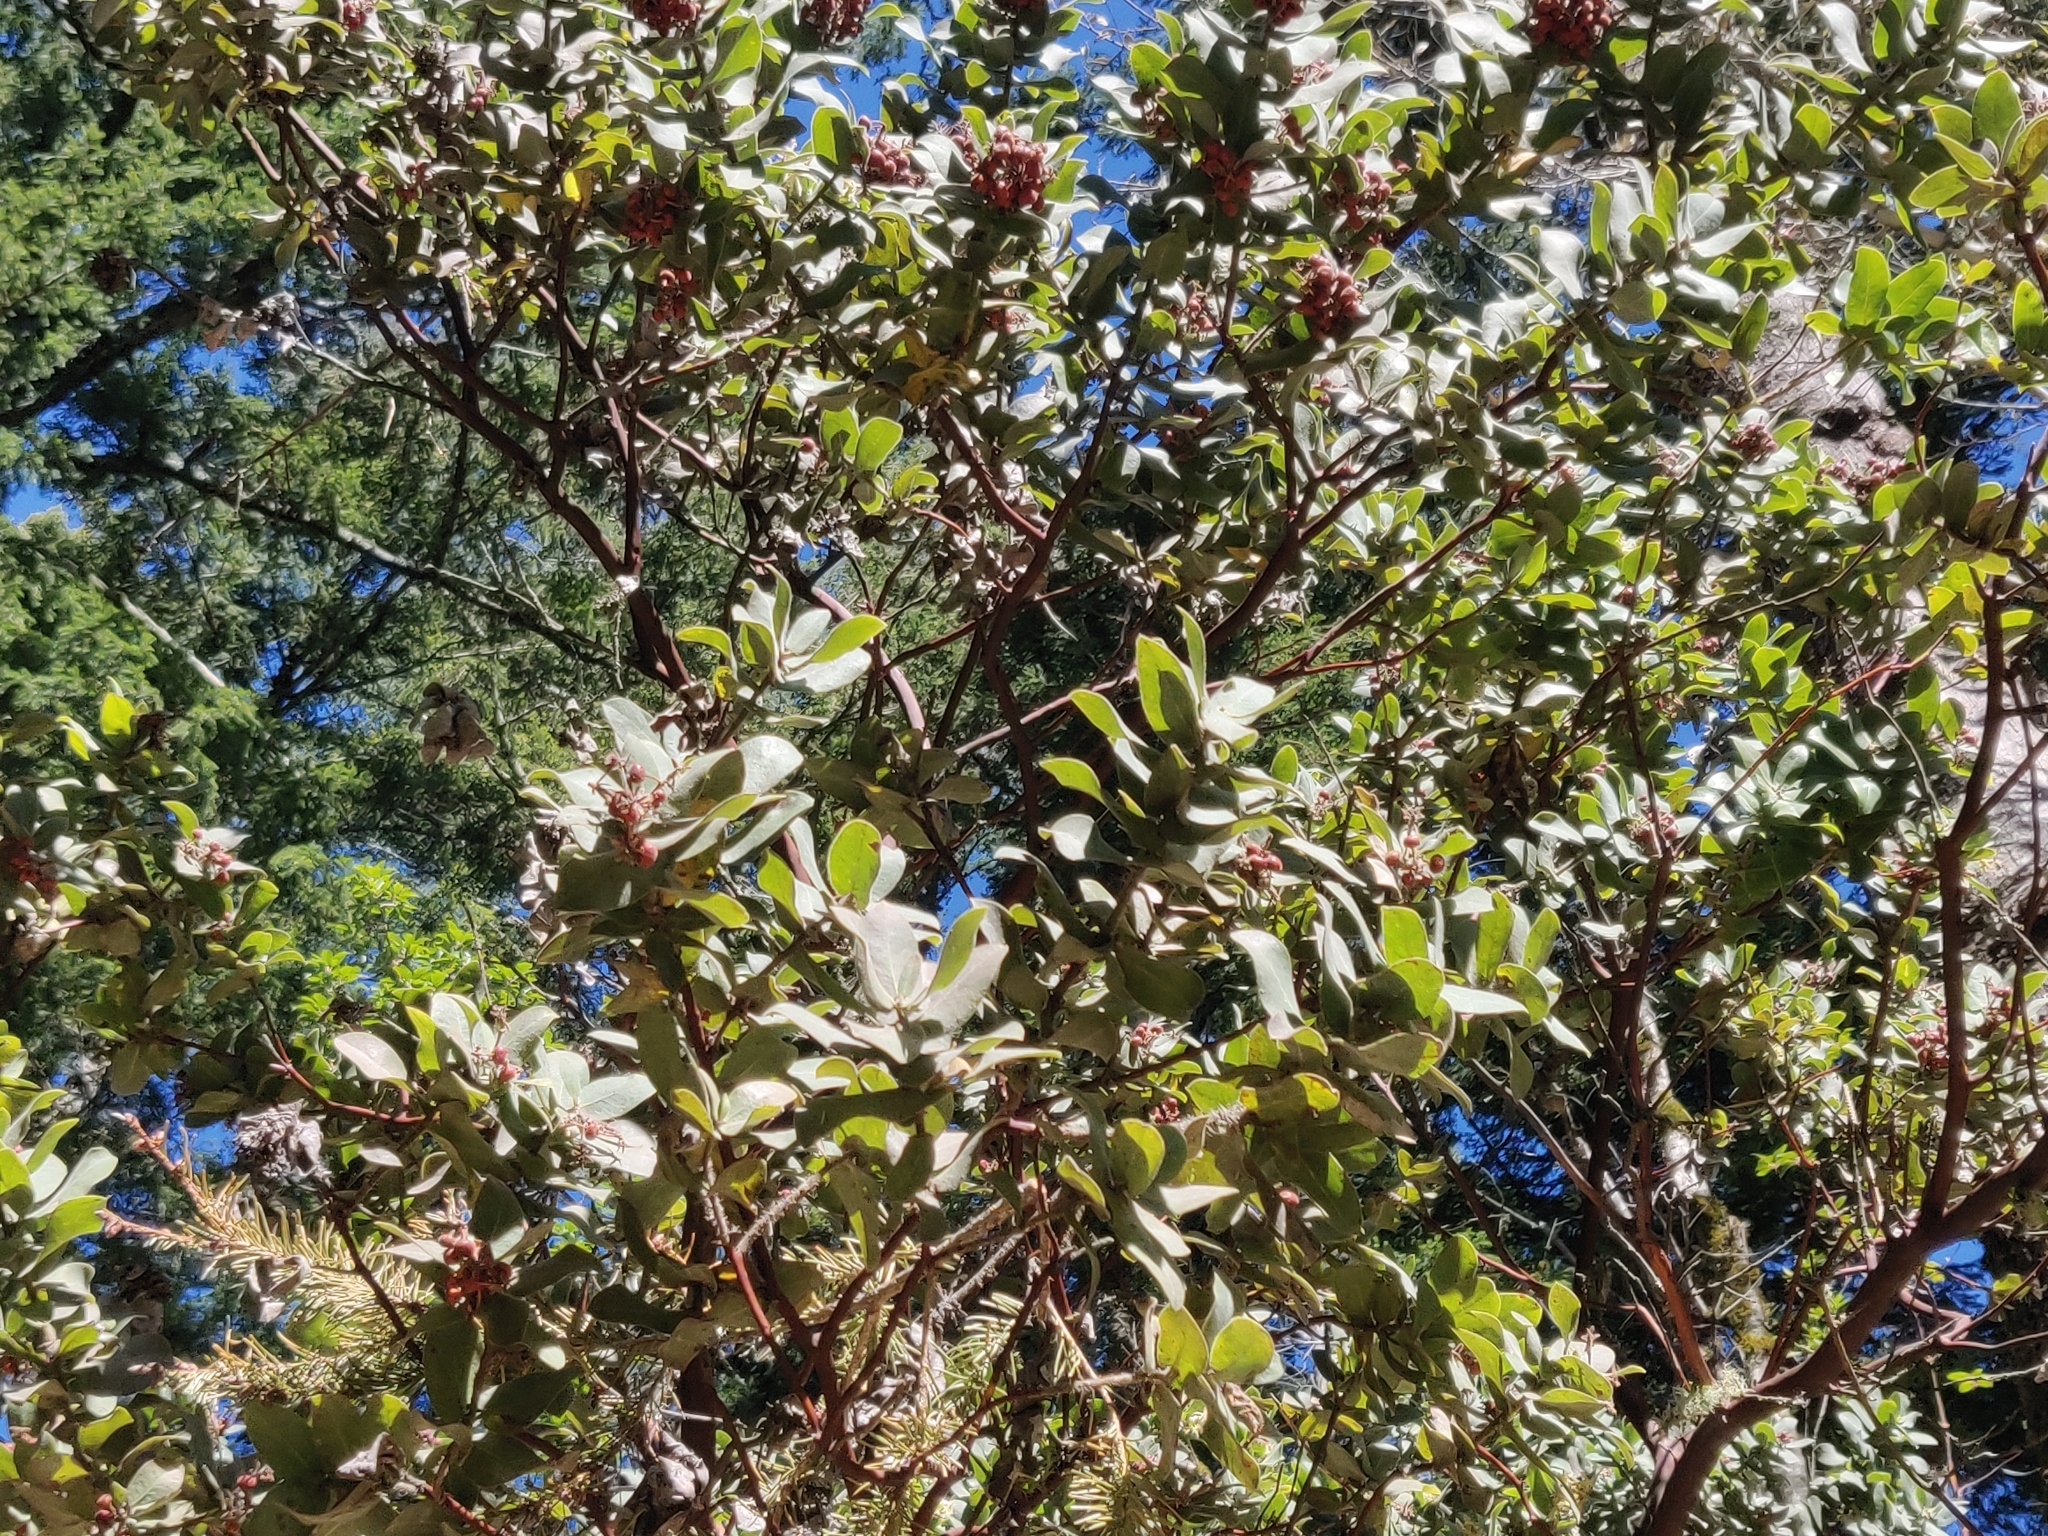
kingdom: Plantae
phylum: Tracheophyta
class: Magnoliopsida
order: Ericales
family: Ericaceae
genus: Arctostaphylos
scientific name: Arctostaphylos regismontana
